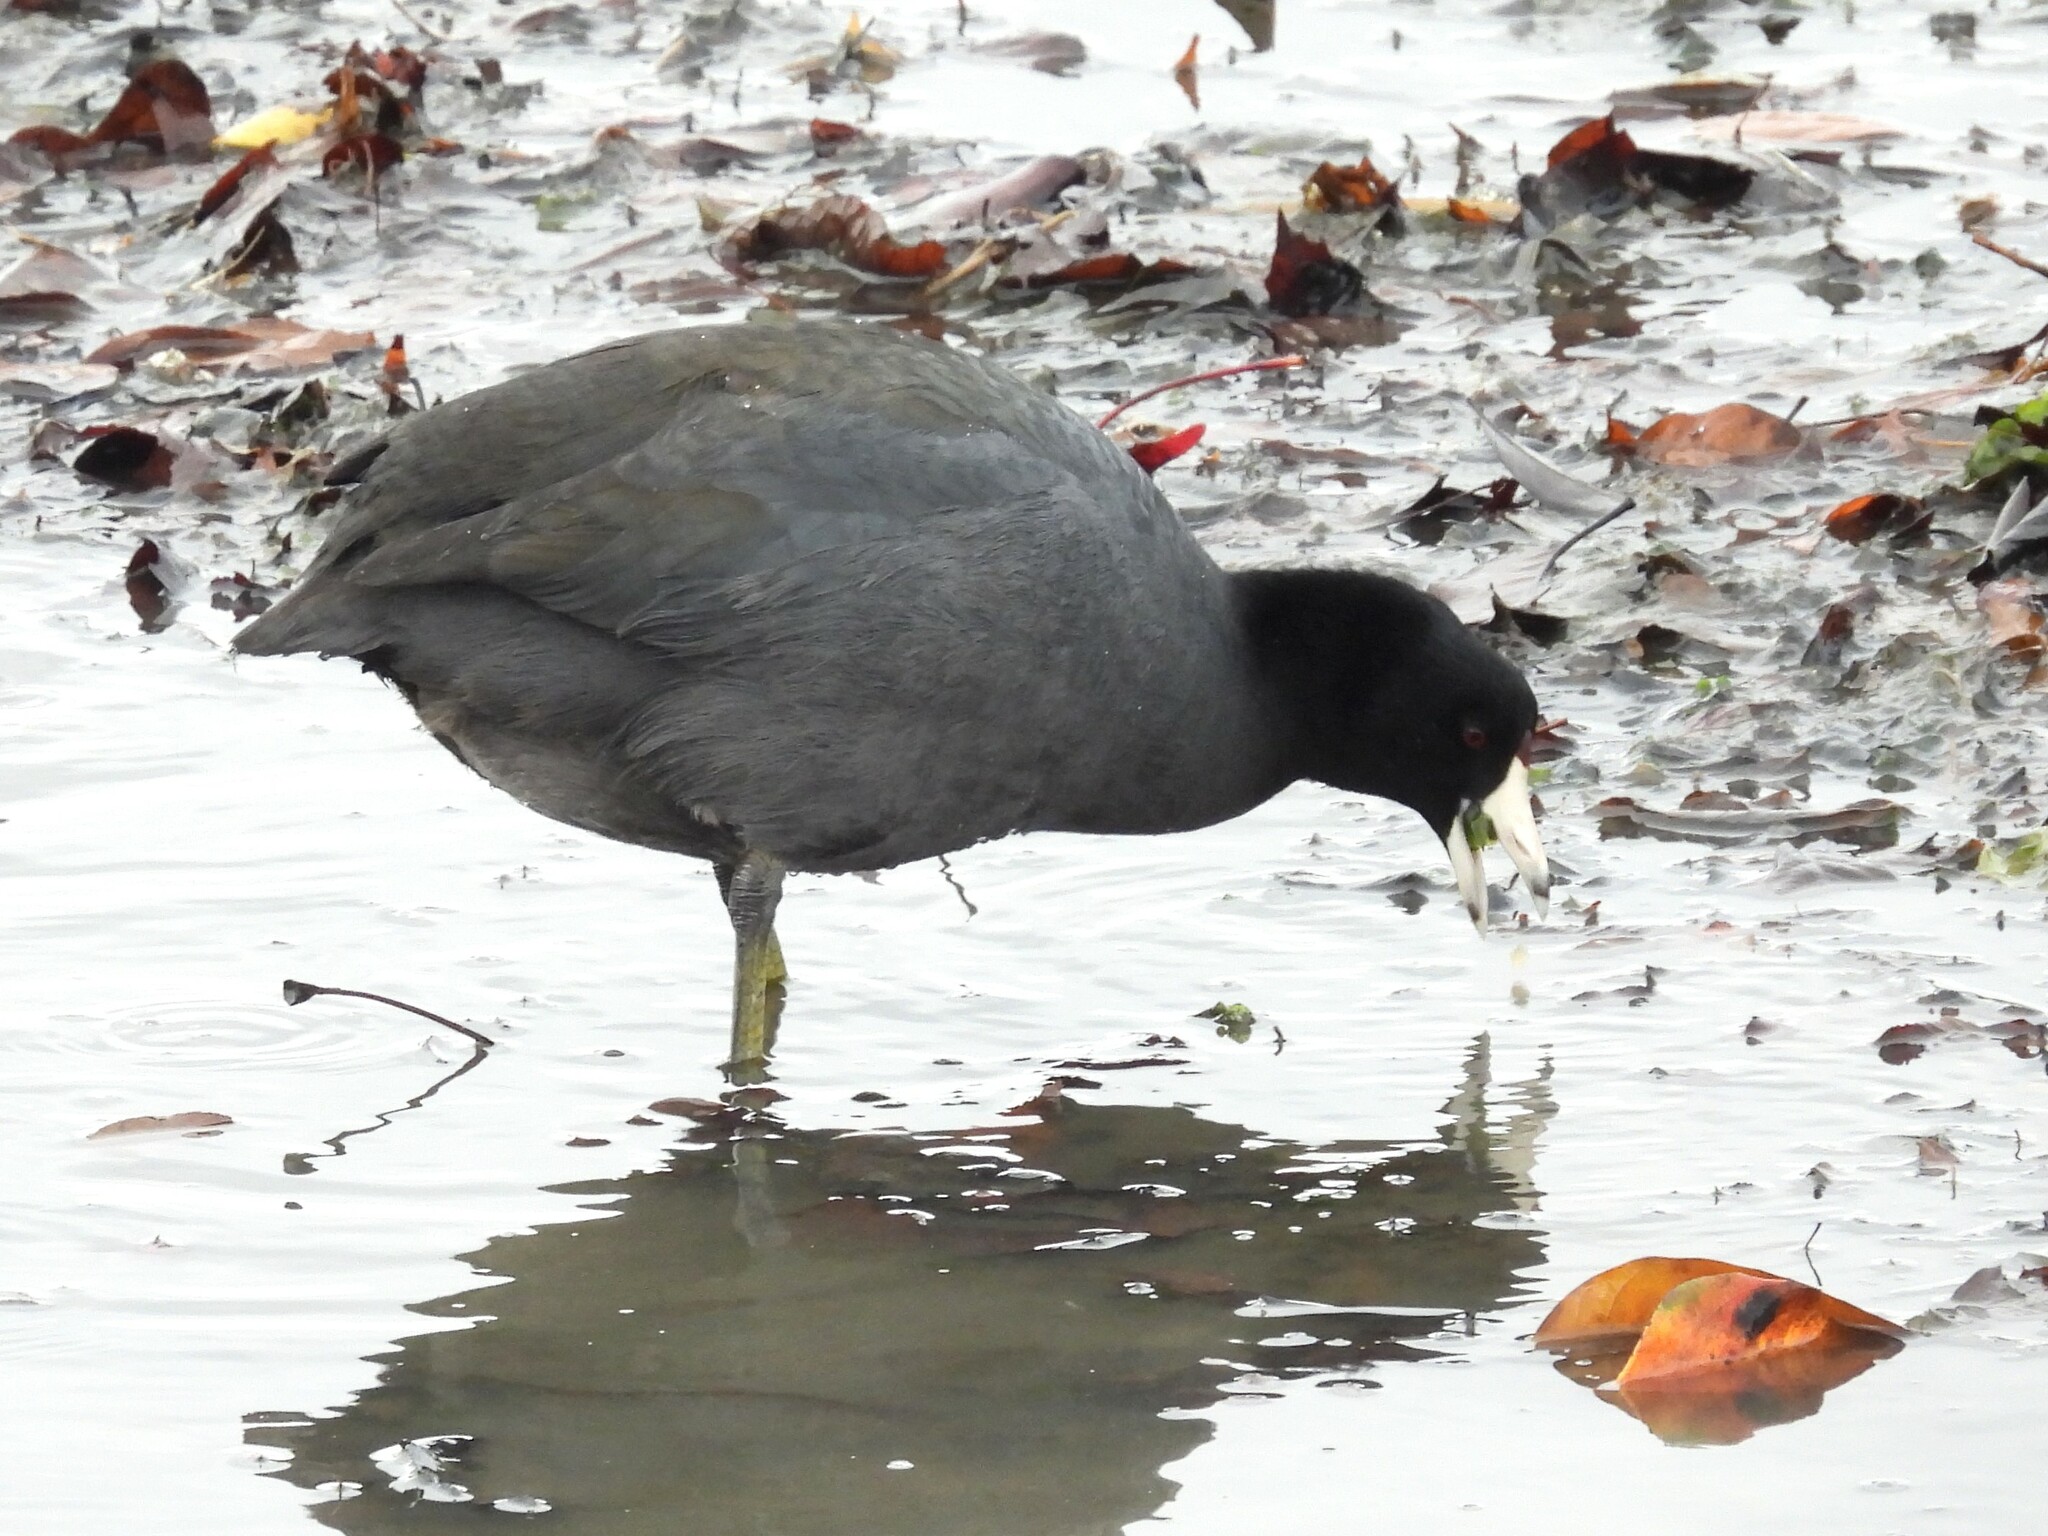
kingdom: Animalia
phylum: Chordata
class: Aves
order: Gruiformes
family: Rallidae
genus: Fulica
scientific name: Fulica americana
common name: American coot
